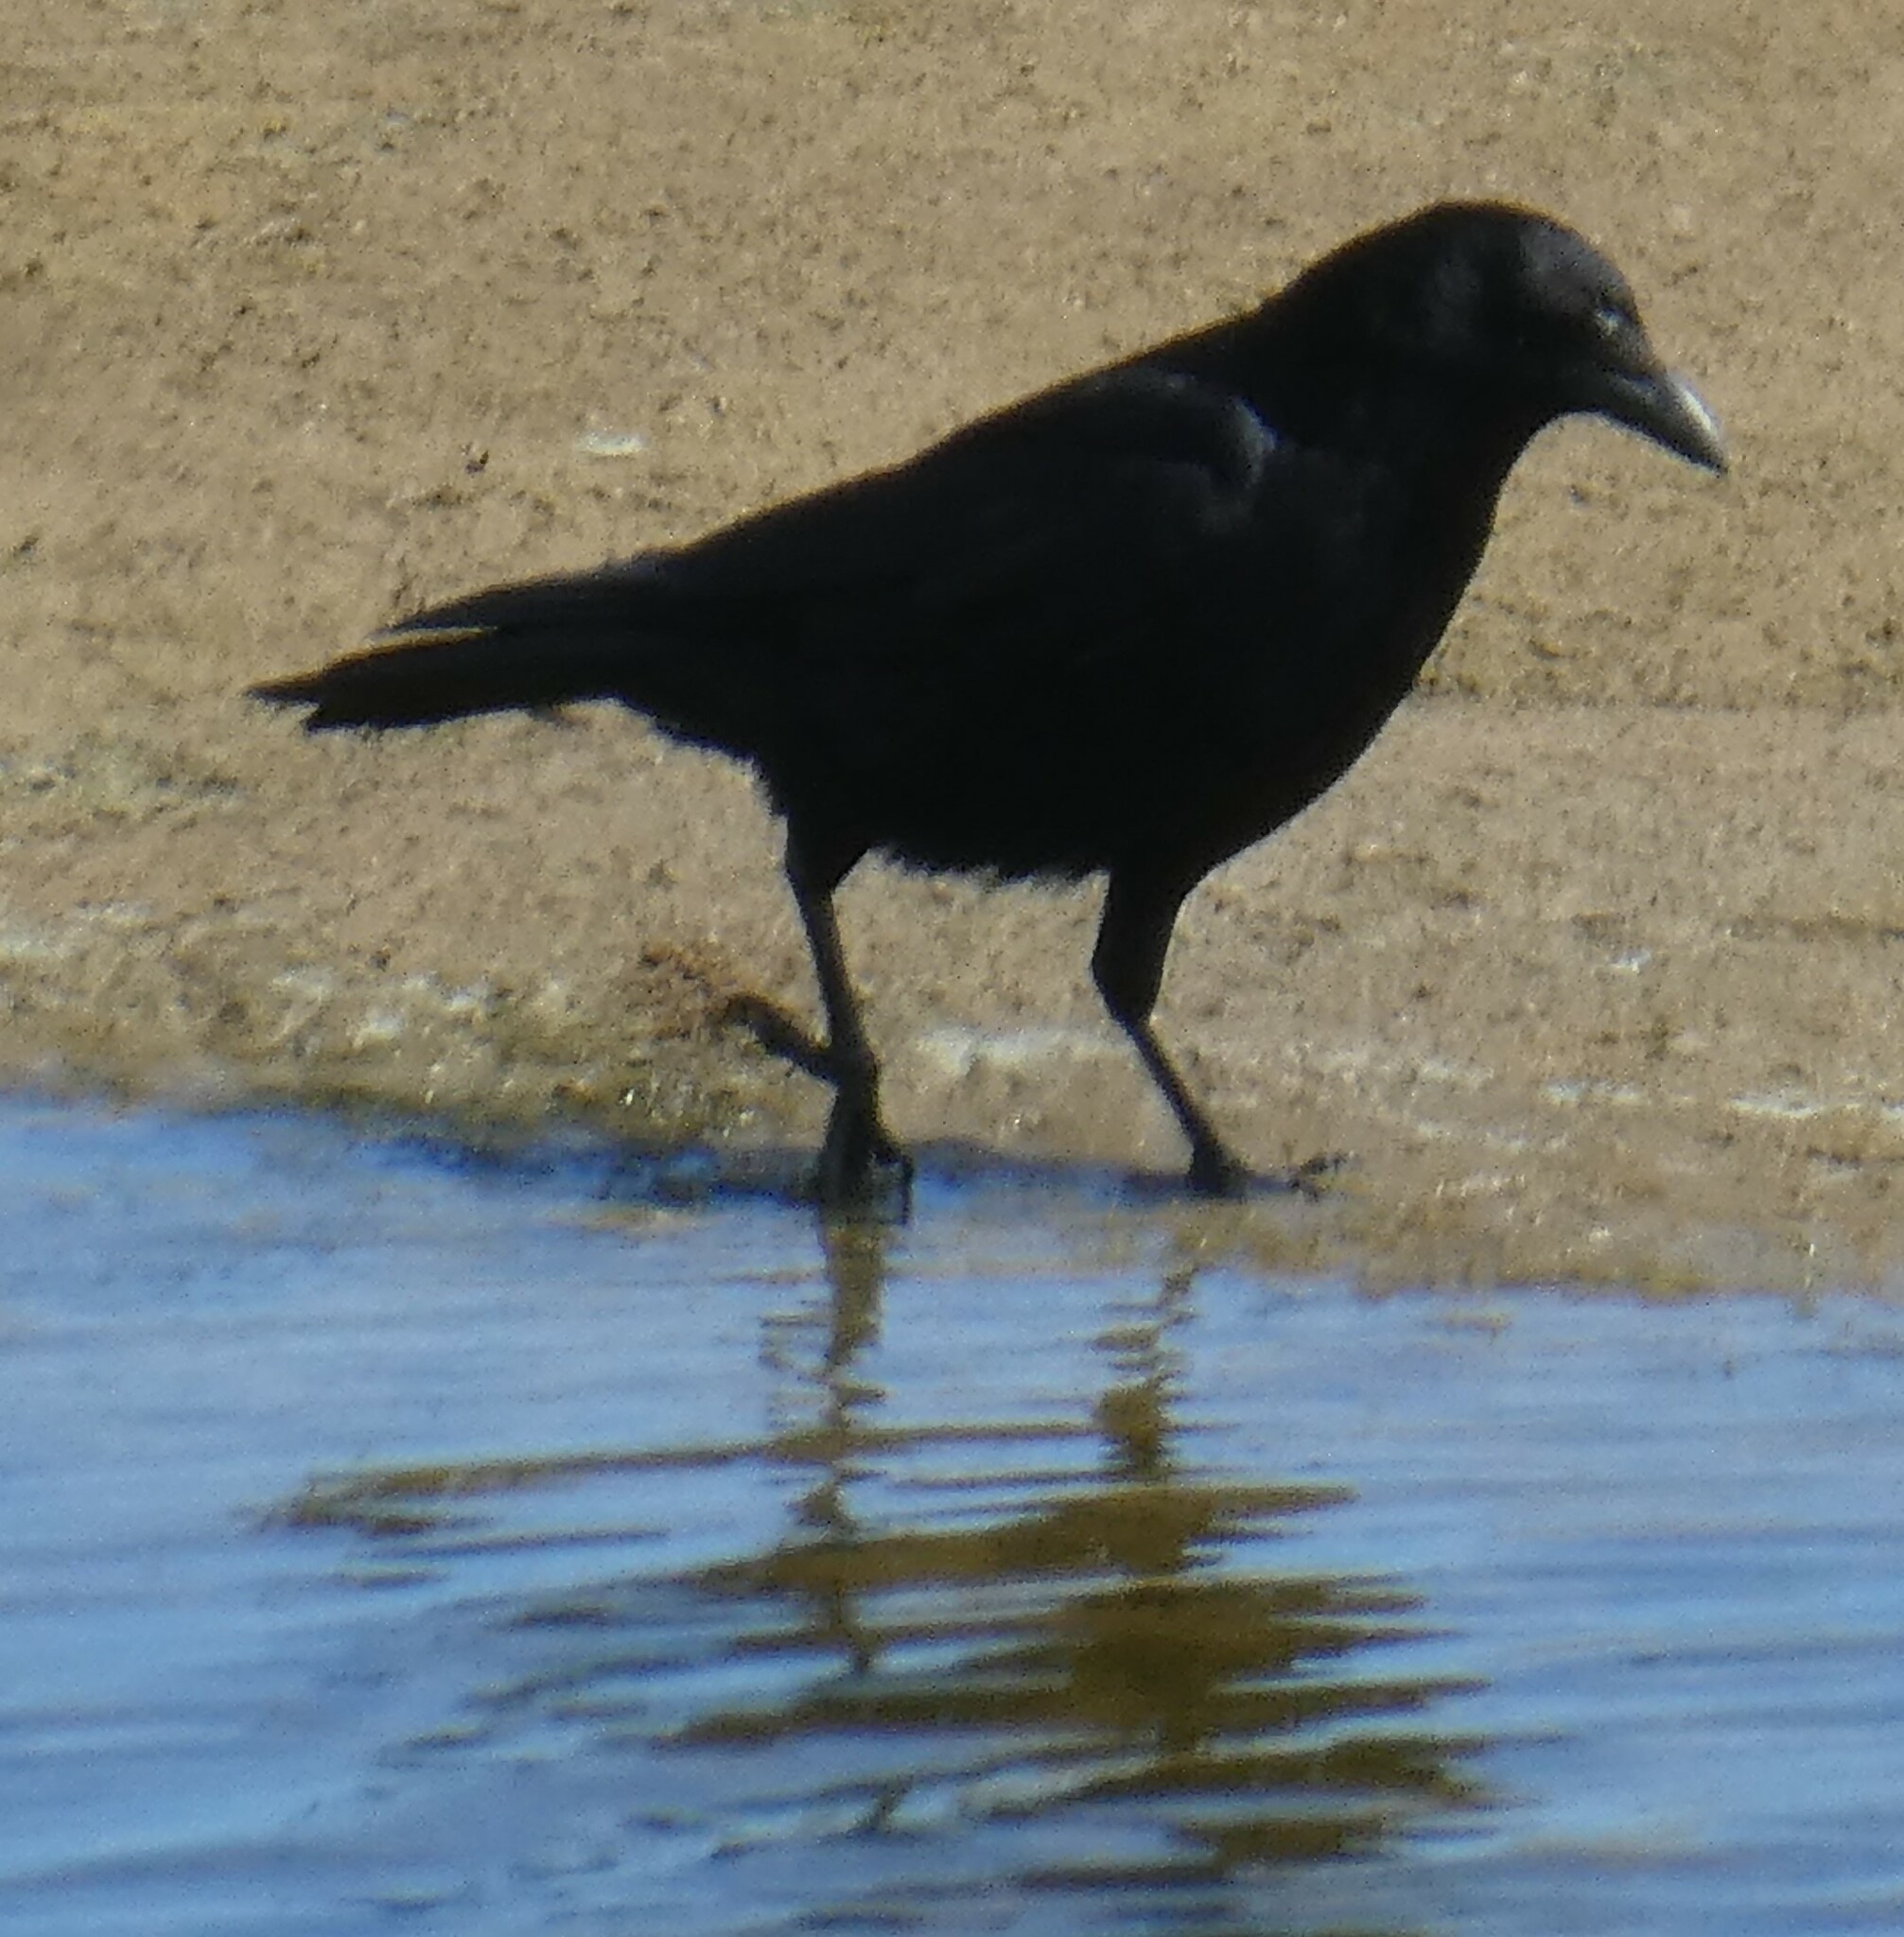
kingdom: Animalia
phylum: Chordata
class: Aves
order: Passeriformes
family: Corvidae
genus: Corvus
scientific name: Corvus corone
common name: Carrion crow
